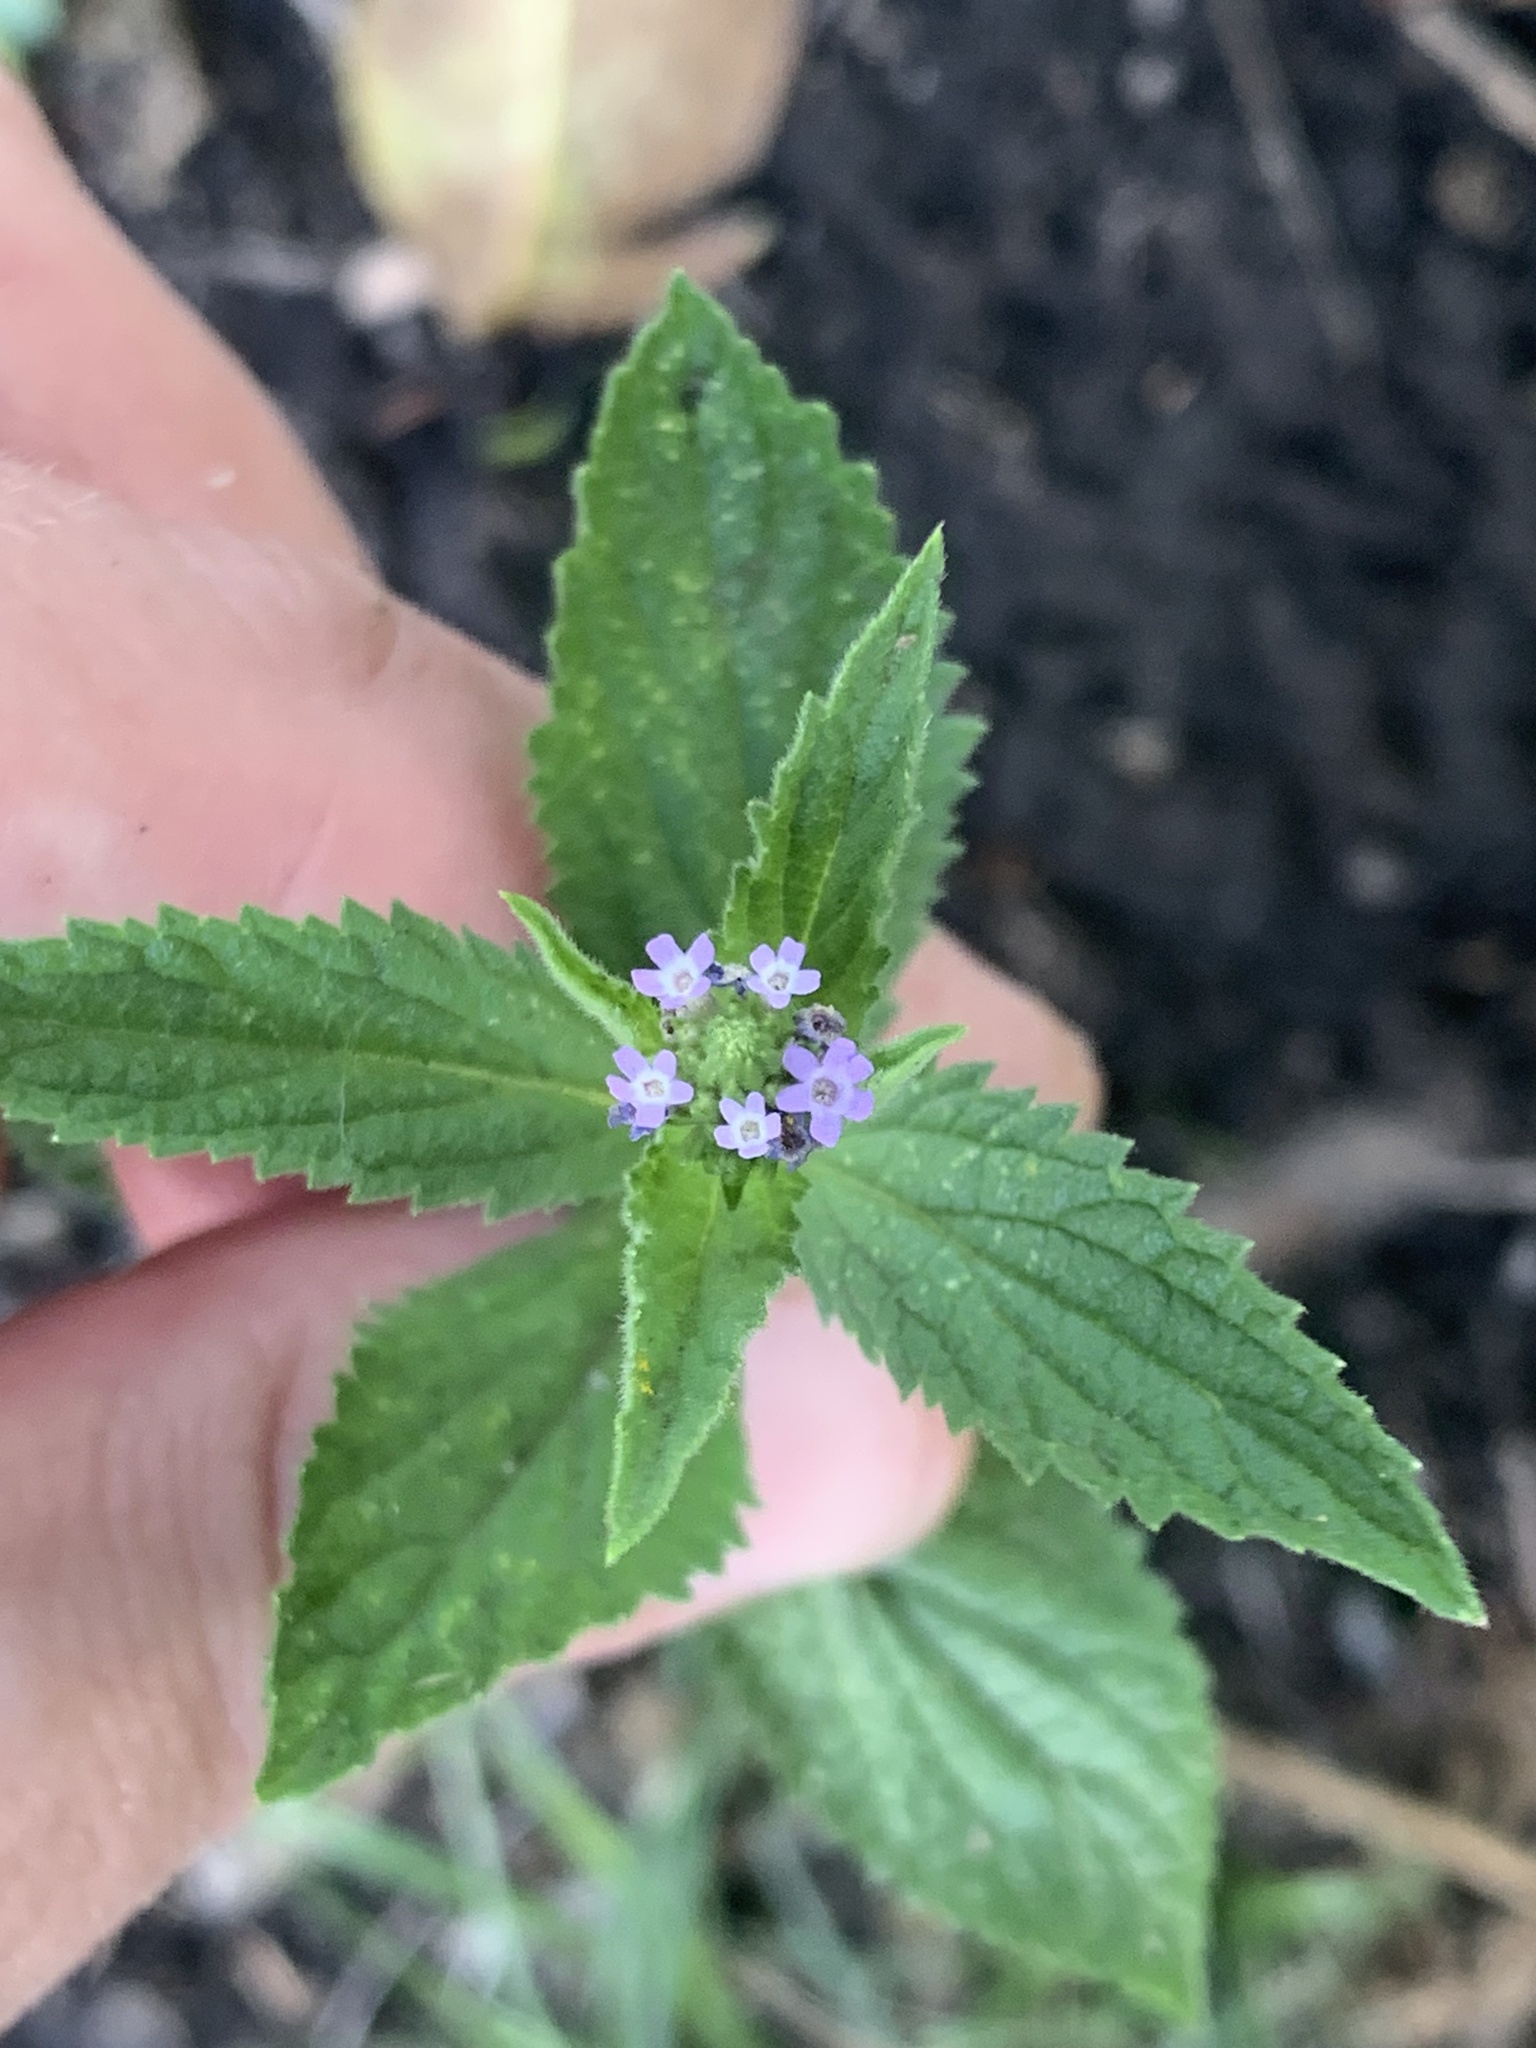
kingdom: Plantae
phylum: Tracheophyta
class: Magnoliopsida
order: Lamiales
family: Verbenaceae
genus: Verbena
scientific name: Verbena hispida
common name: Hairy vervain
